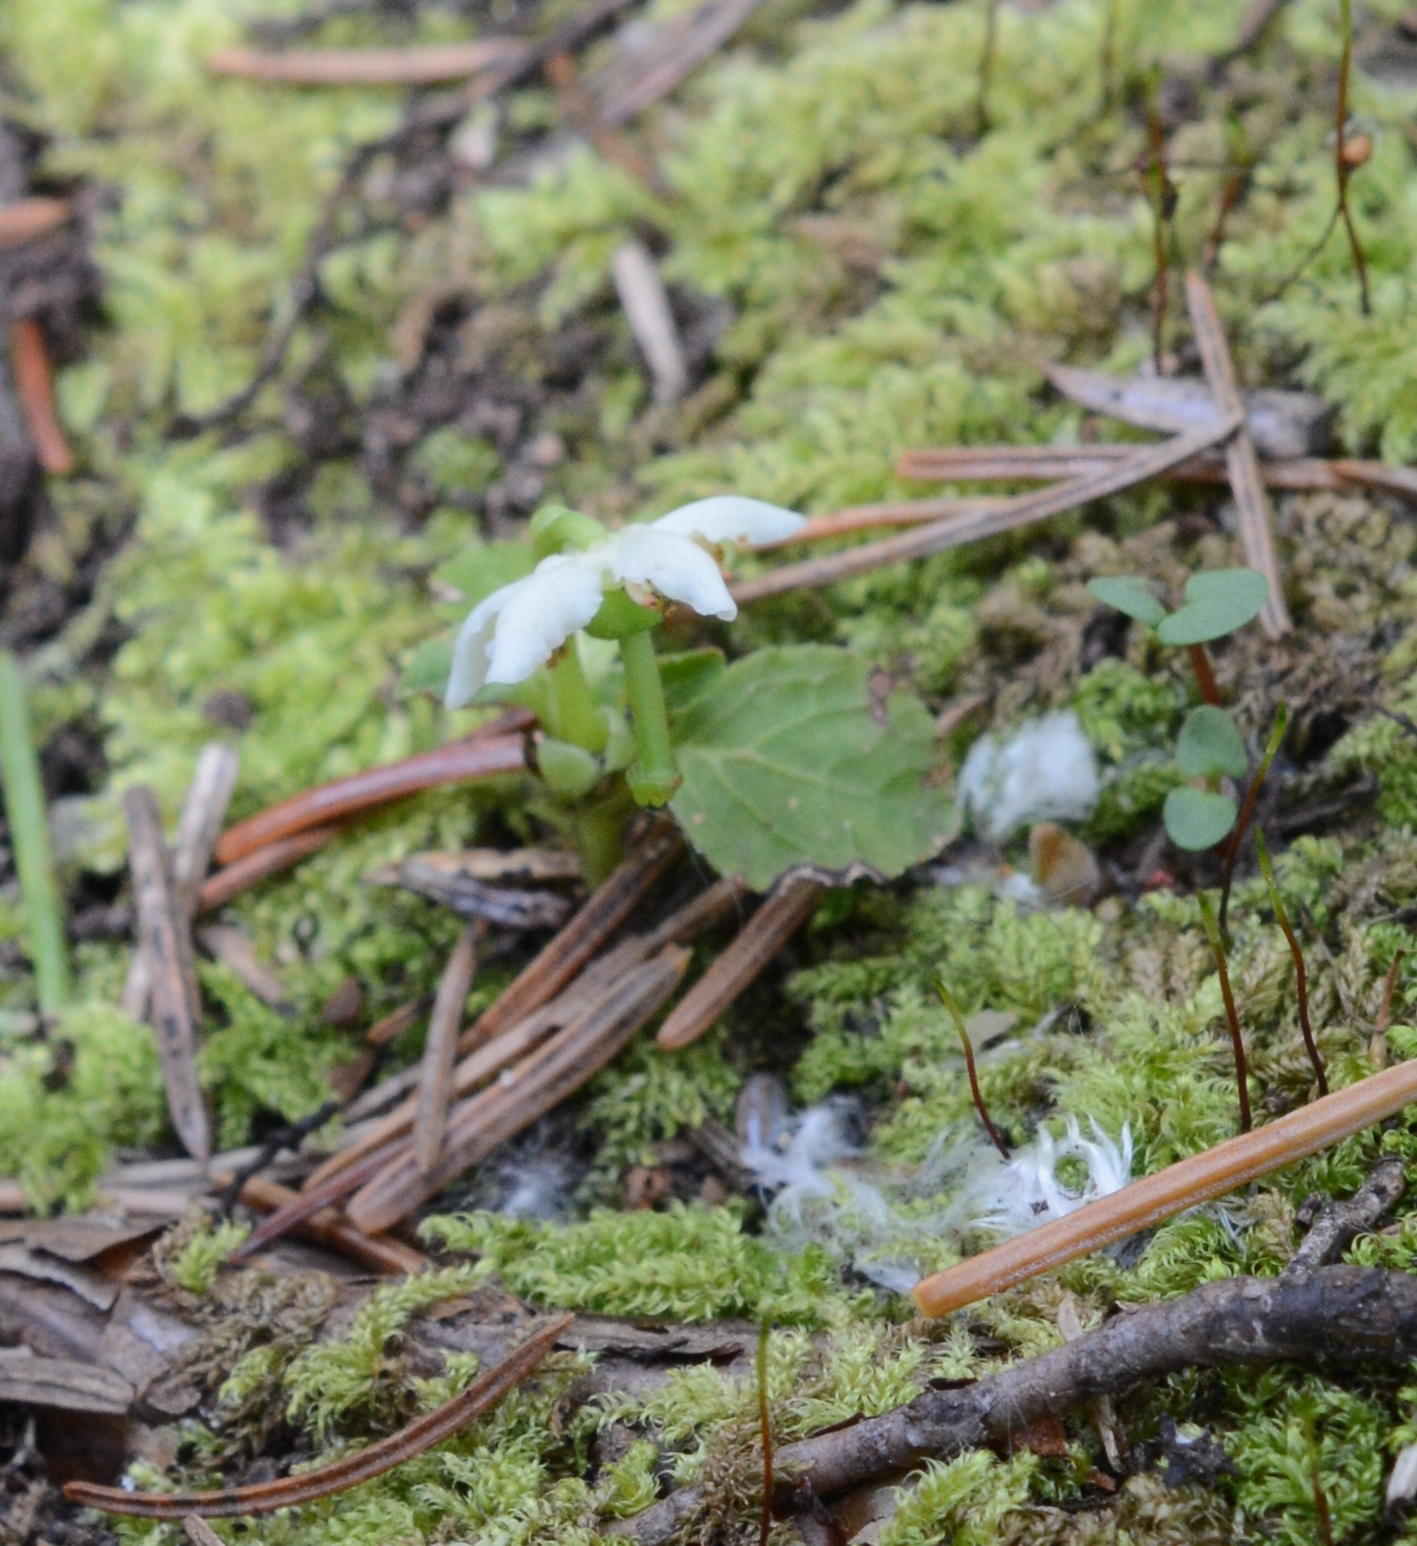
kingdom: Plantae
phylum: Tracheophyta
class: Magnoliopsida
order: Ericales
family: Ericaceae
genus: Moneses
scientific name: Moneses uniflora
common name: One-flowered wintergreen
